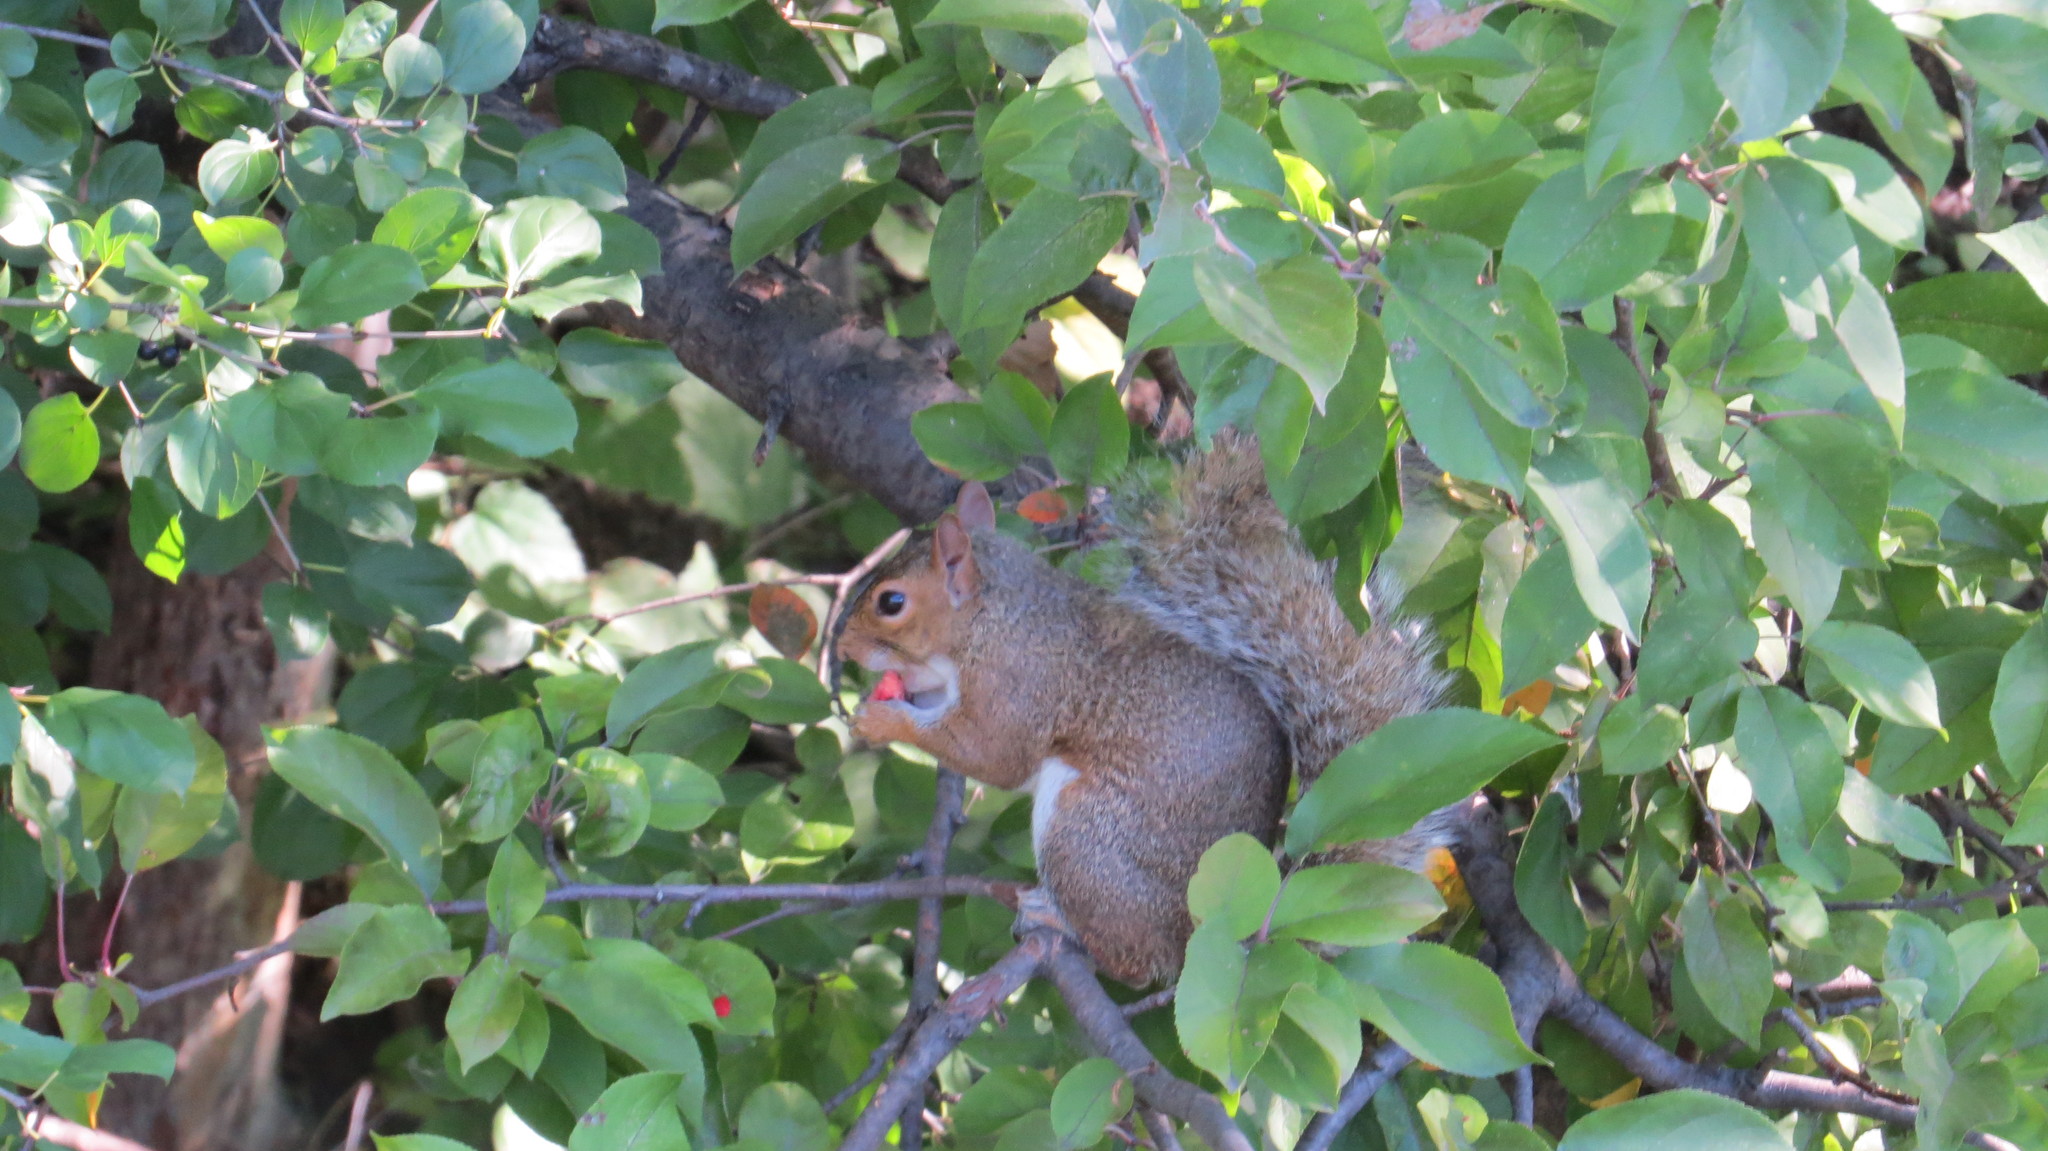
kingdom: Animalia
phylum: Chordata
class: Mammalia
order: Rodentia
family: Sciuridae
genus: Sciurus
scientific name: Sciurus carolinensis
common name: Eastern gray squirrel
